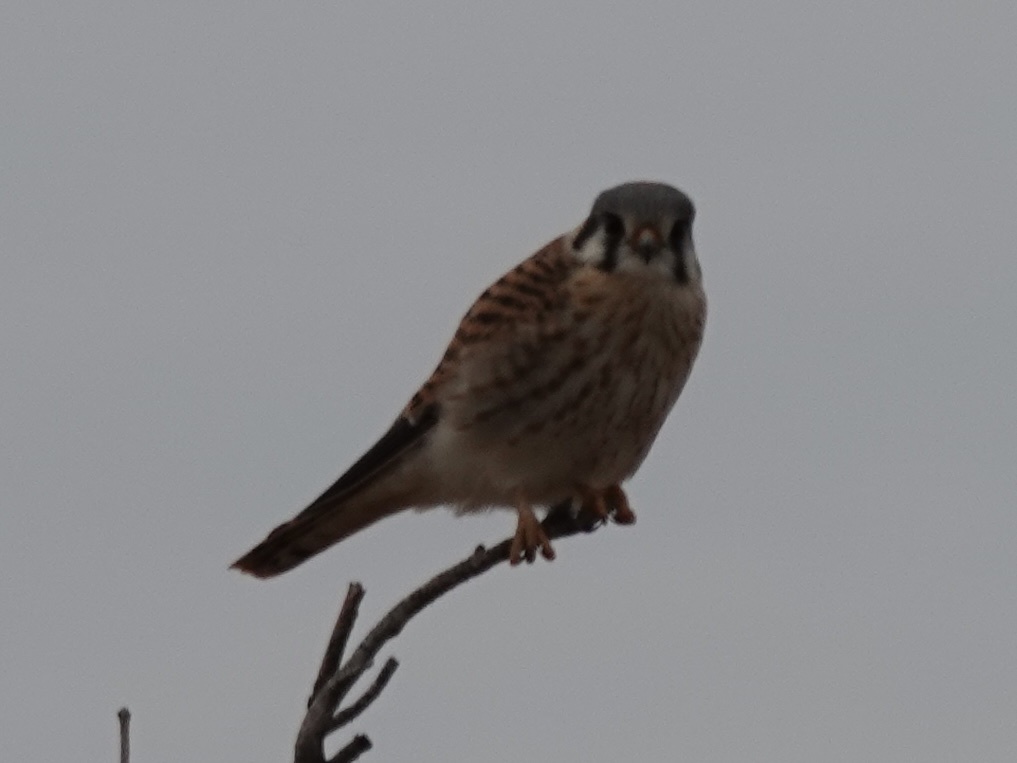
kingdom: Animalia
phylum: Chordata
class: Aves
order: Falconiformes
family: Falconidae
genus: Falco
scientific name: Falco sparverius
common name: American kestrel
